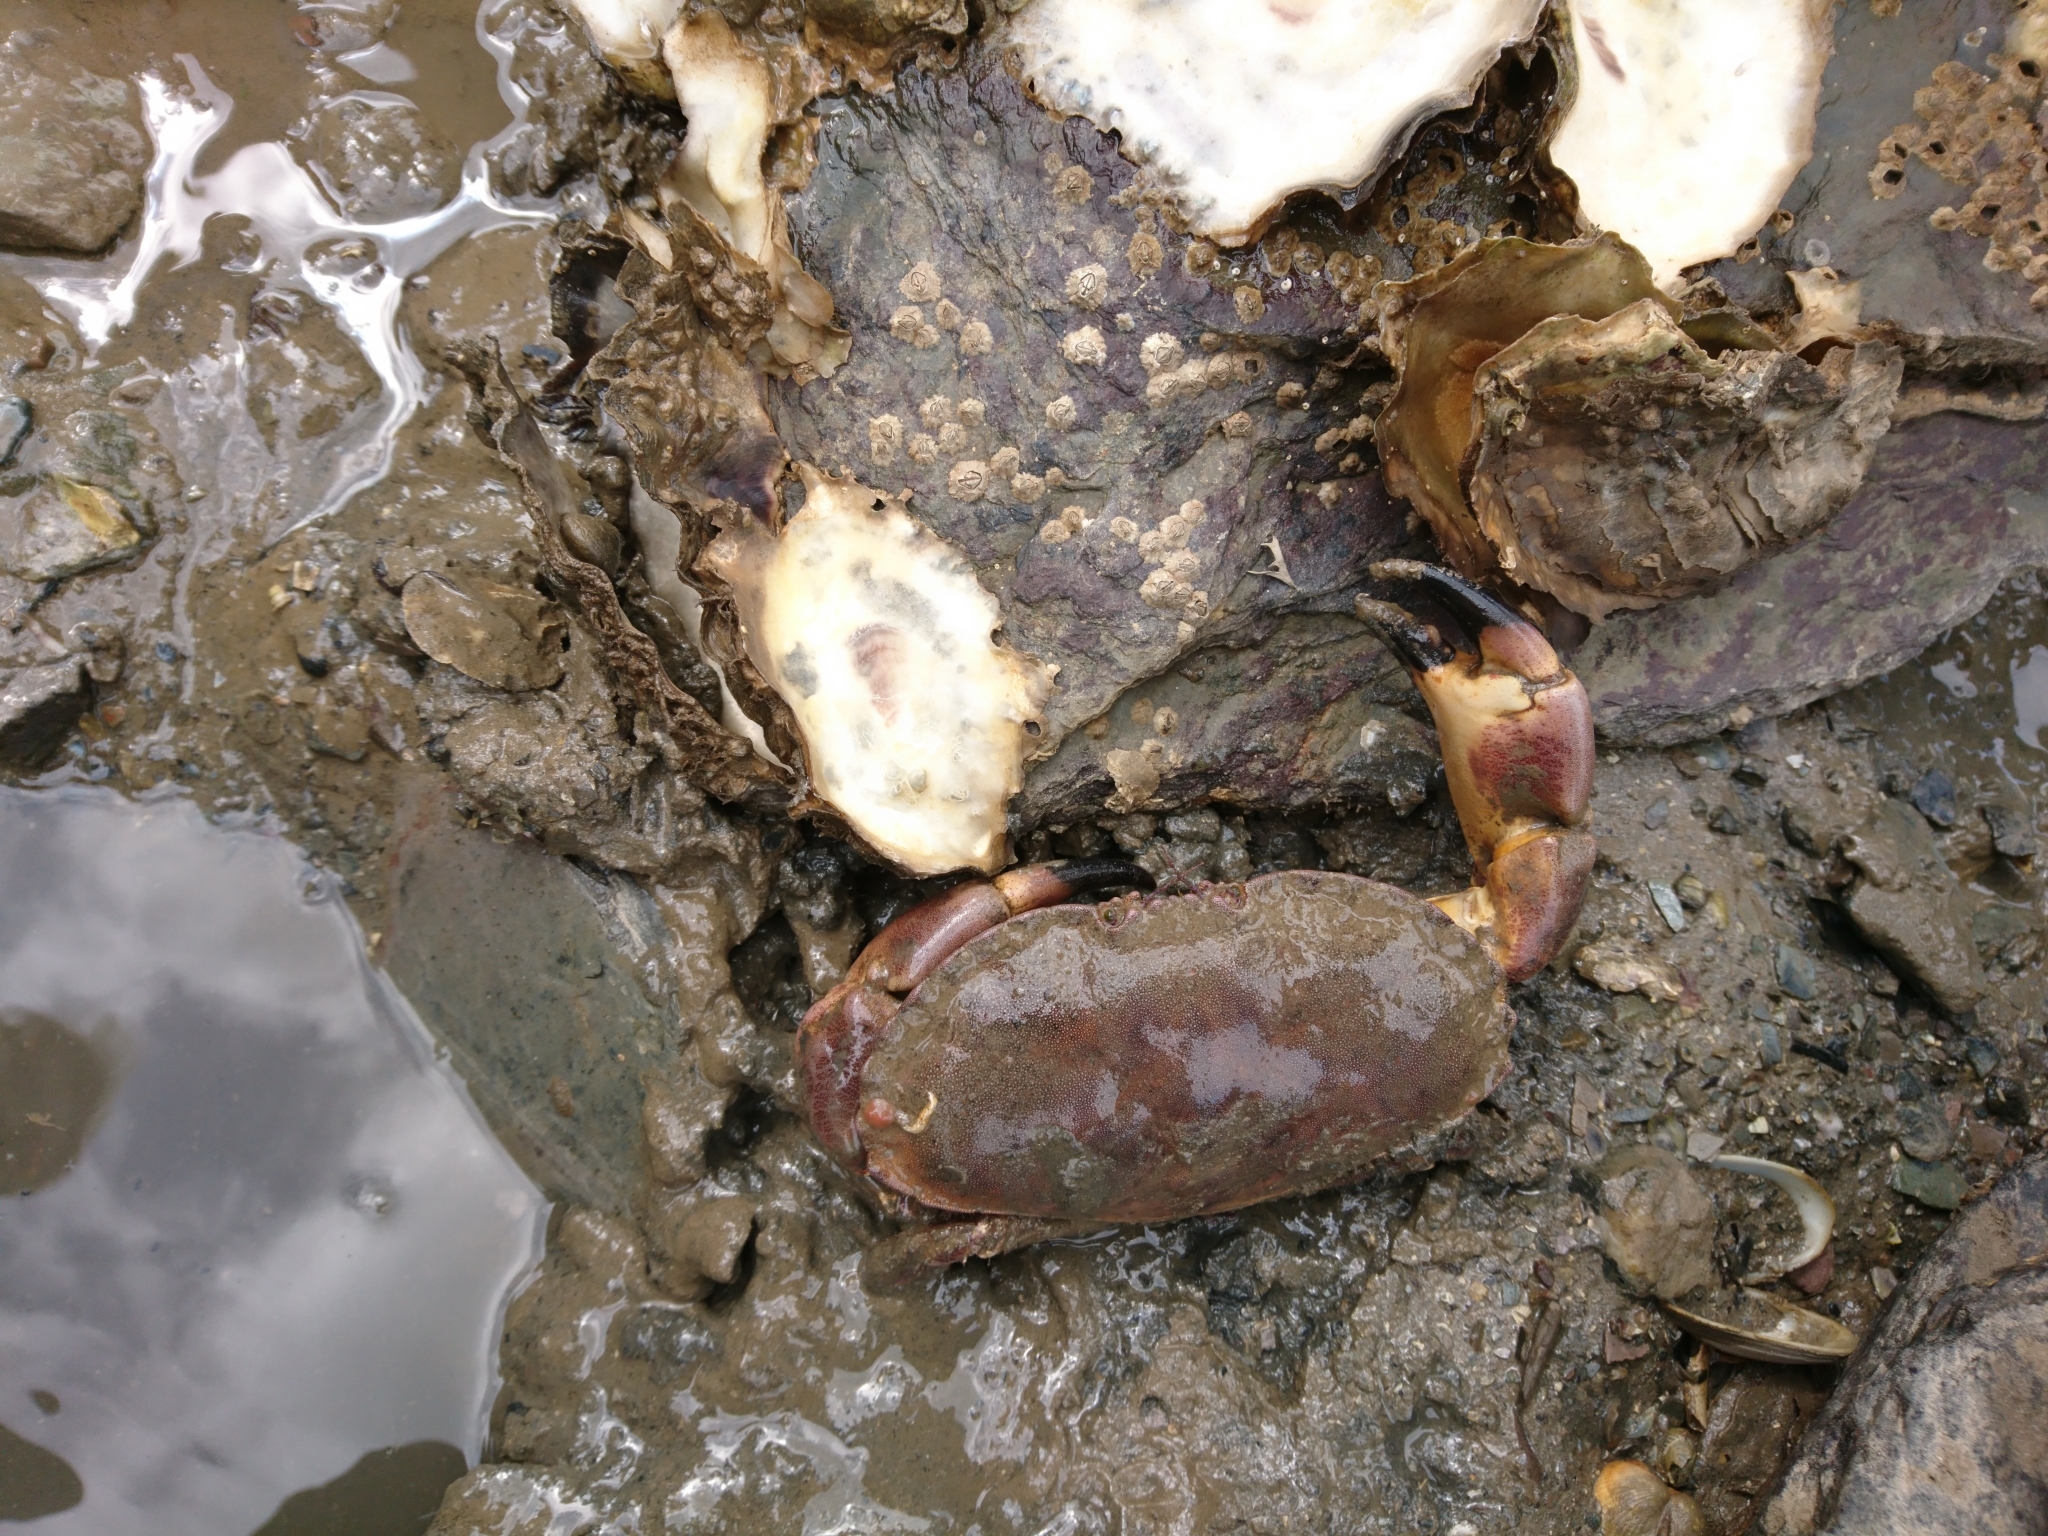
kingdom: Animalia
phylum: Arthropoda
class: Malacostraca
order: Decapoda
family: Cancridae
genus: Cancer
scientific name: Cancer pagurus
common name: Edible crab
